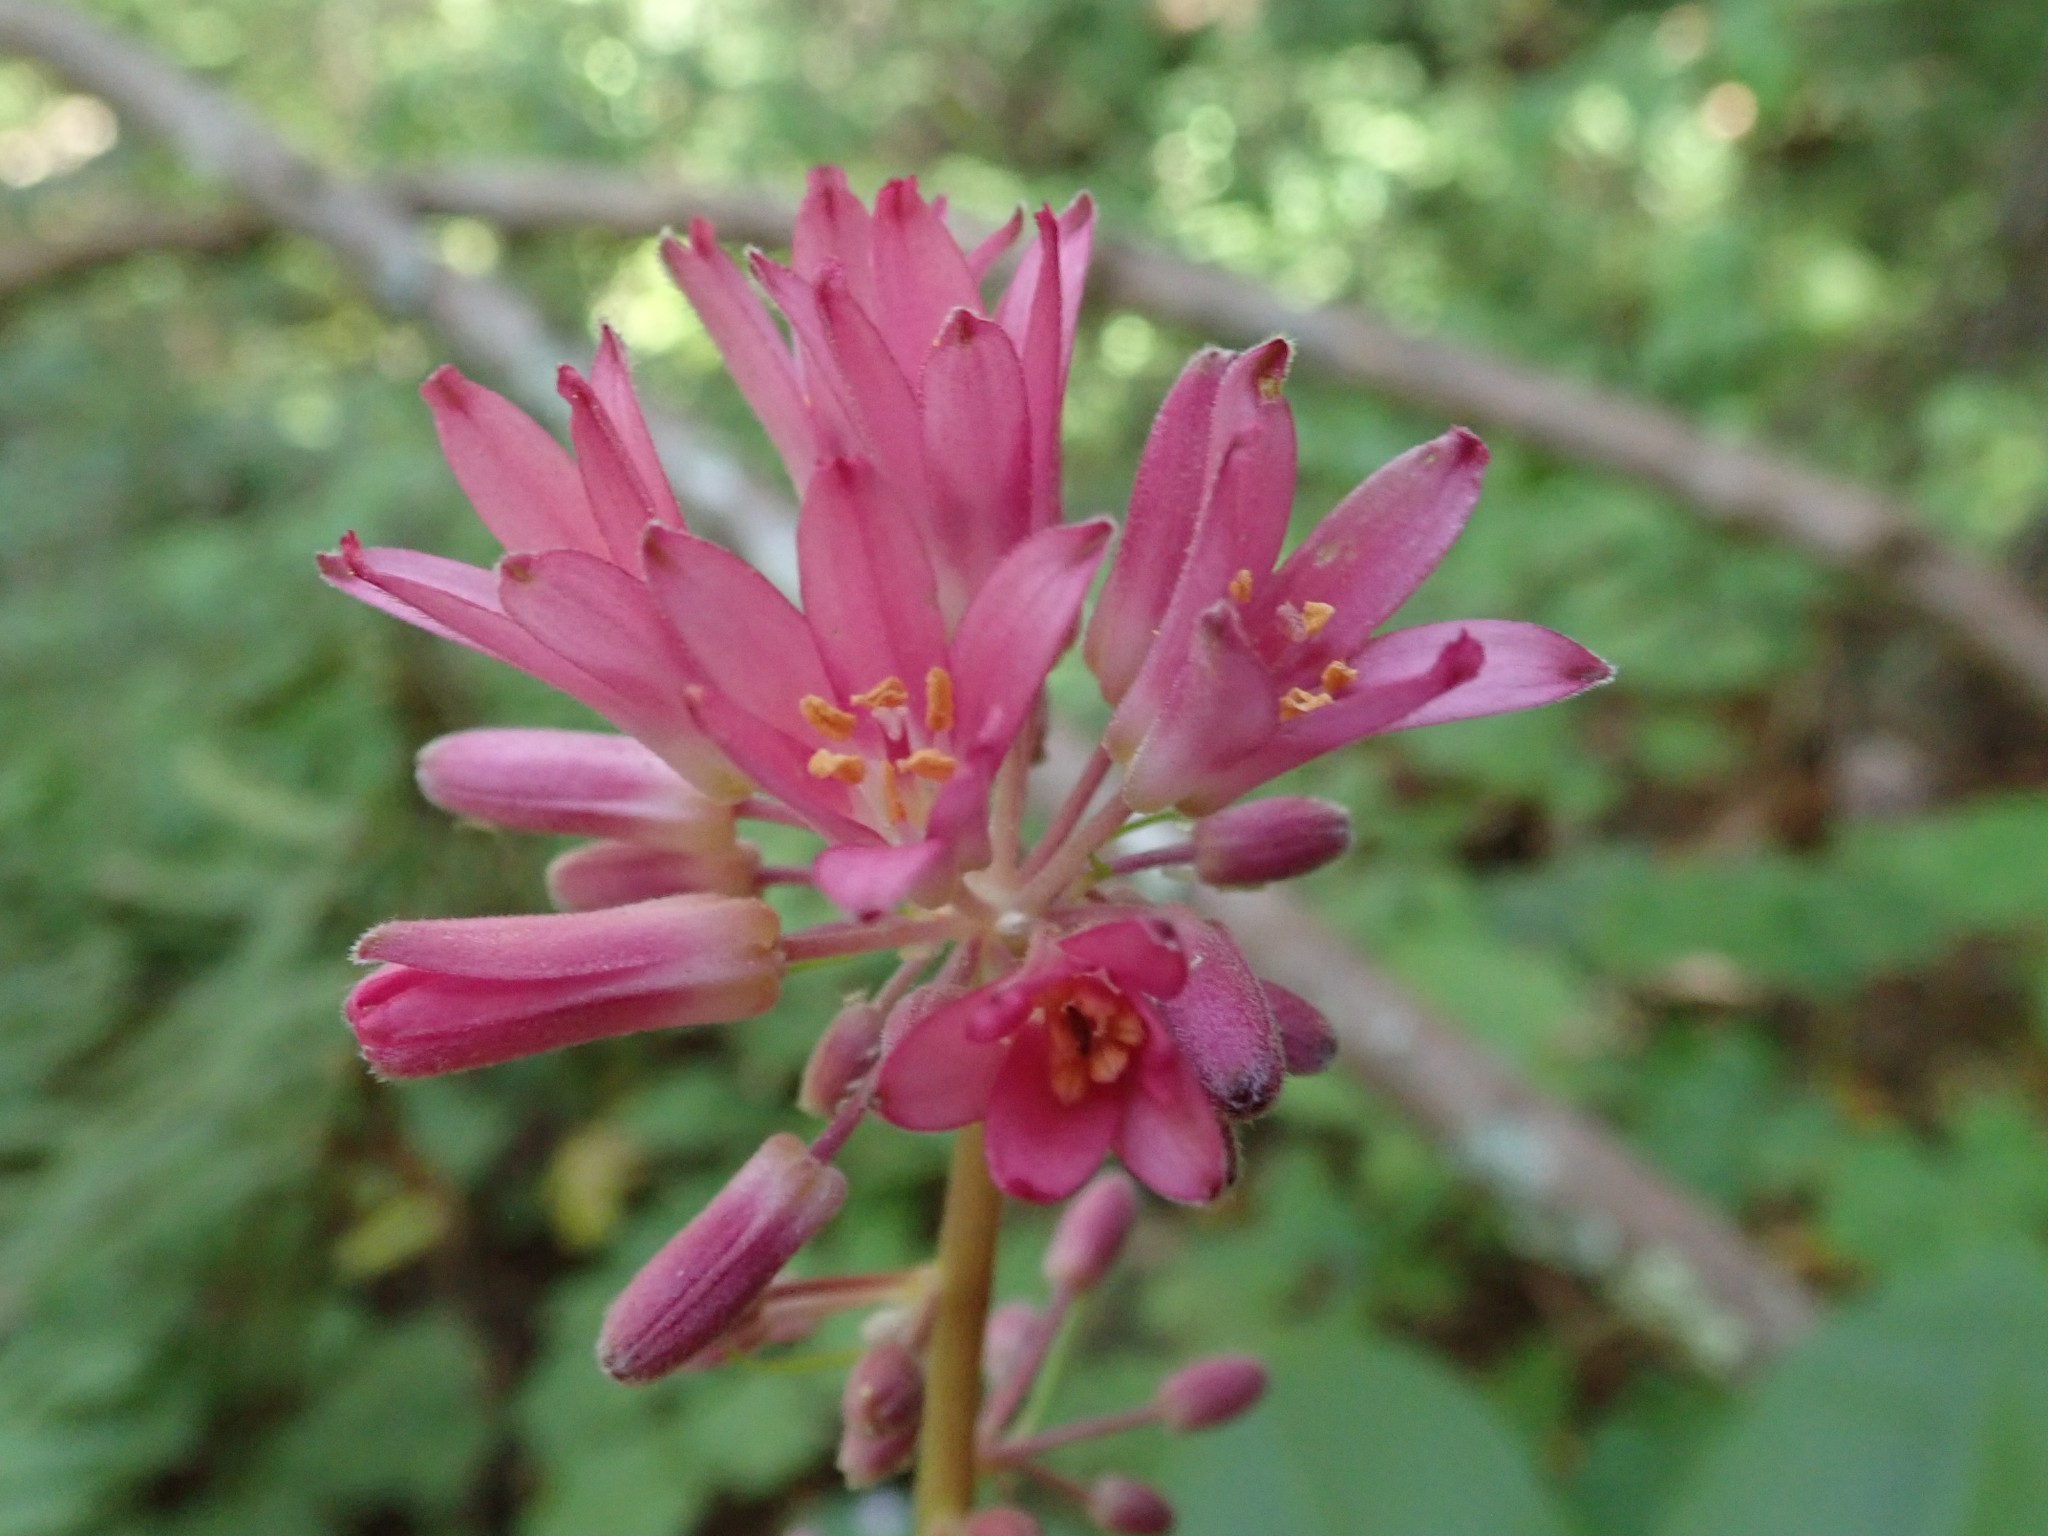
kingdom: Plantae
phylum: Tracheophyta
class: Liliopsida
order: Liliales
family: Liliaceae
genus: Clintonia
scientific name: Clintonia andrewsiana
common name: Red clintonia
